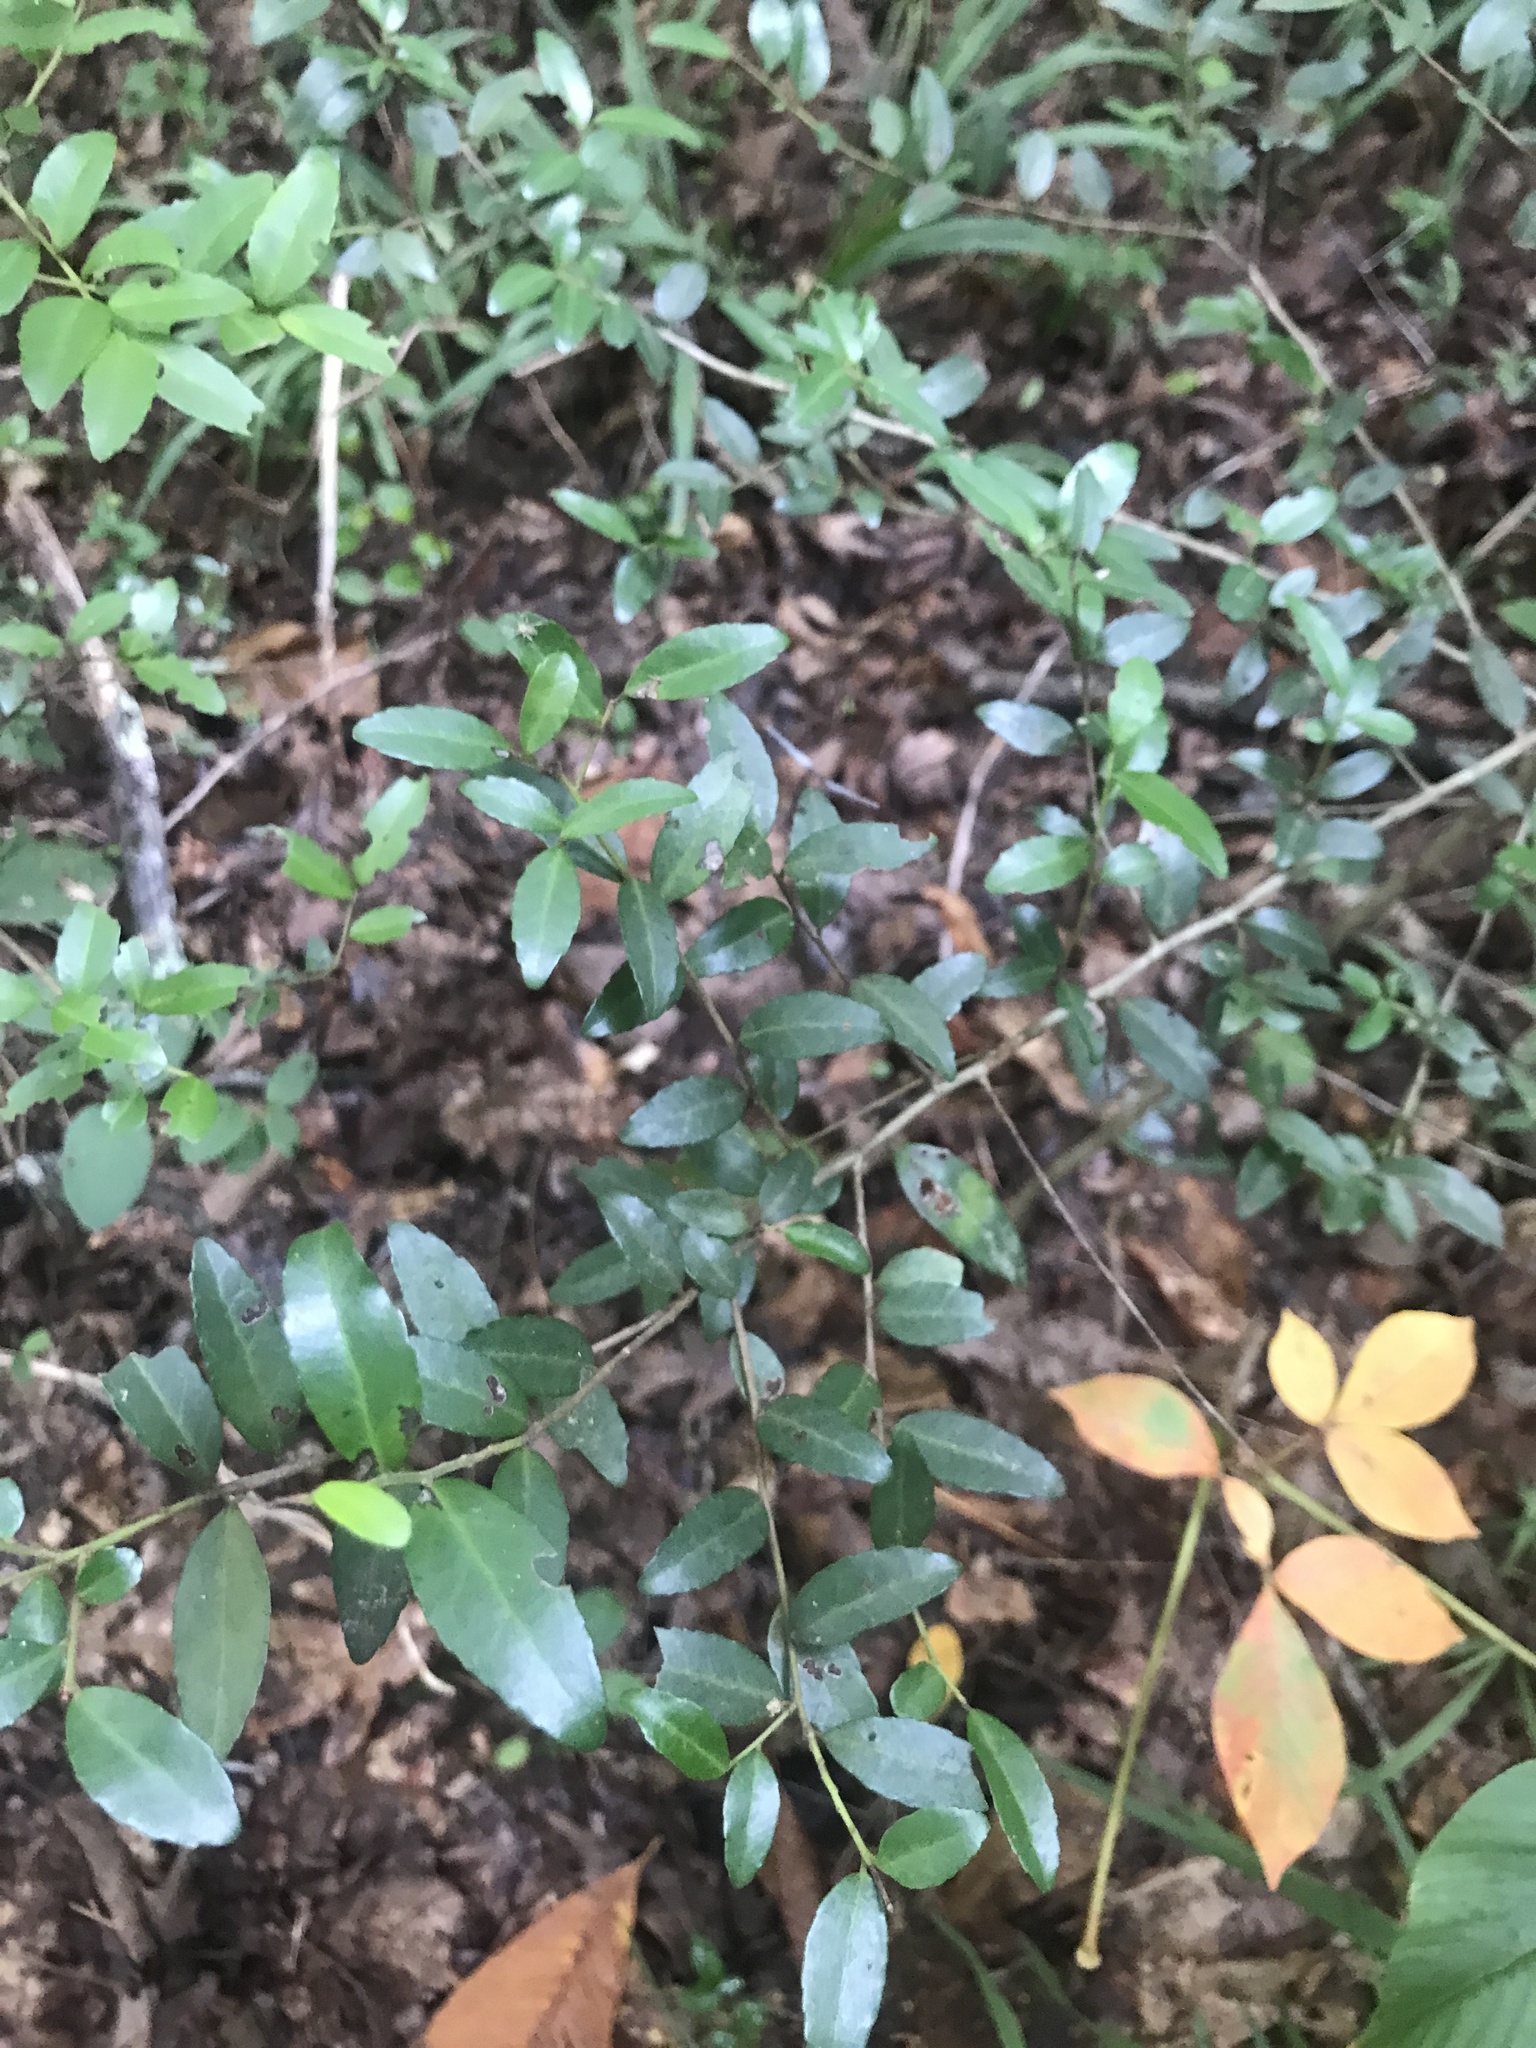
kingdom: Plantae
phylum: Tracheophyta
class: Magnoliopsida
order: Aquifoliales
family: Aquifoliaceae
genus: Ilex
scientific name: Ilex vomitoria
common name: Yaupon holly
